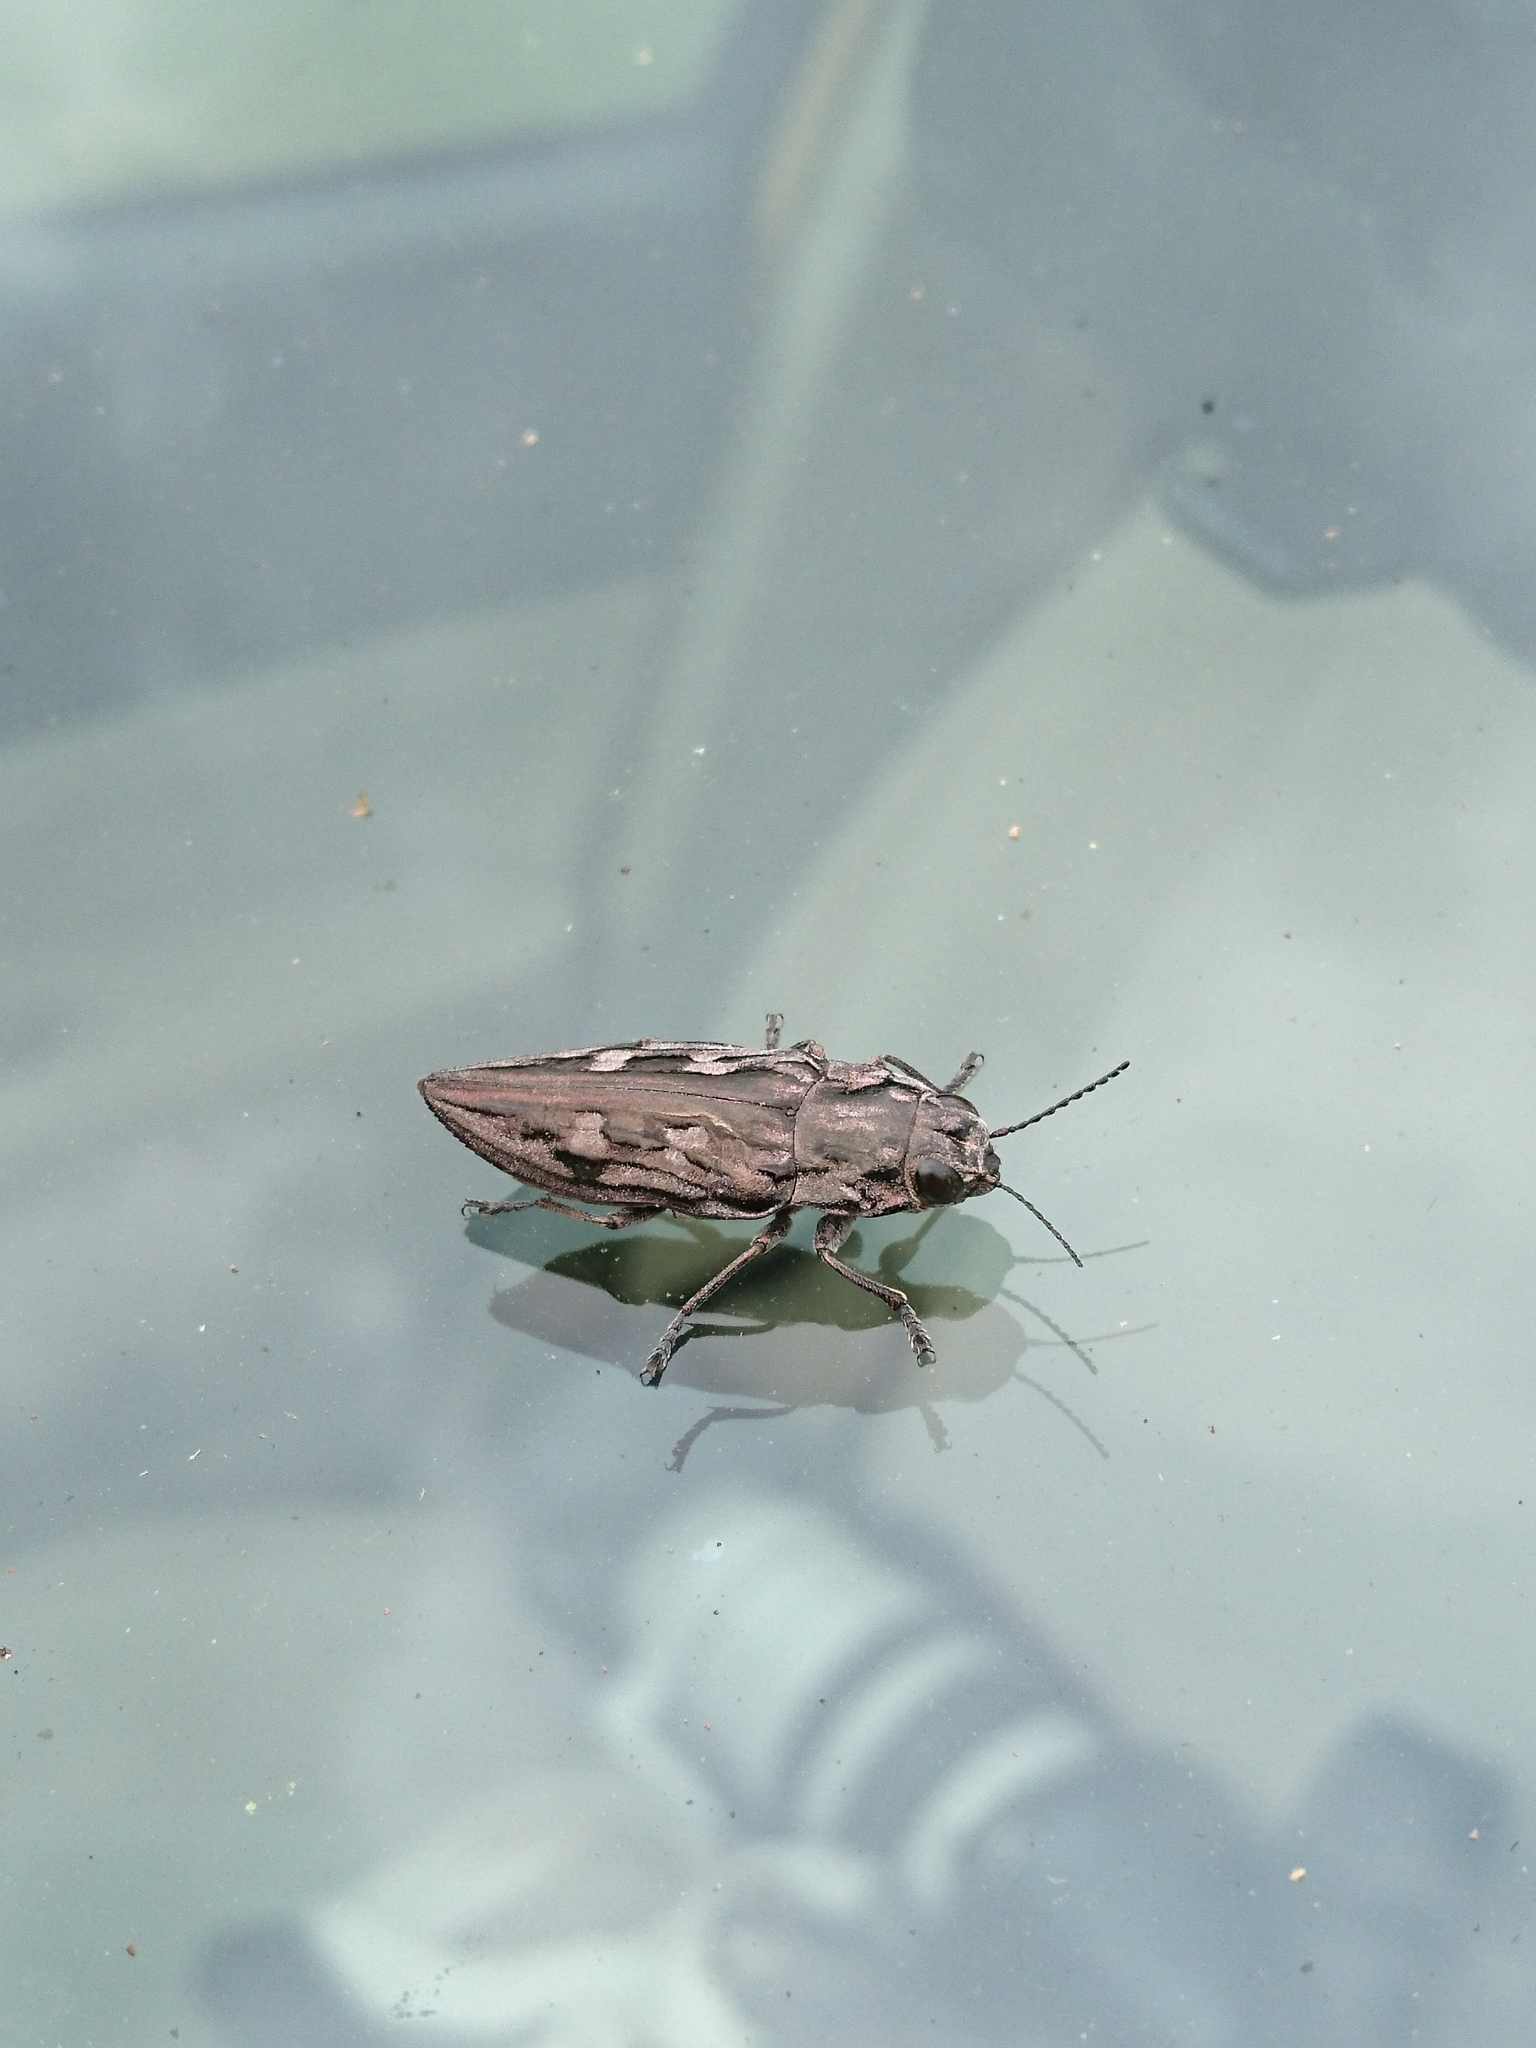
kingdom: Animalia
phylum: Arthropoda
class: Insecta
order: Coleoptera
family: Buprestidae
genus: Chalcophora
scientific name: Chalcophora virginiensis
